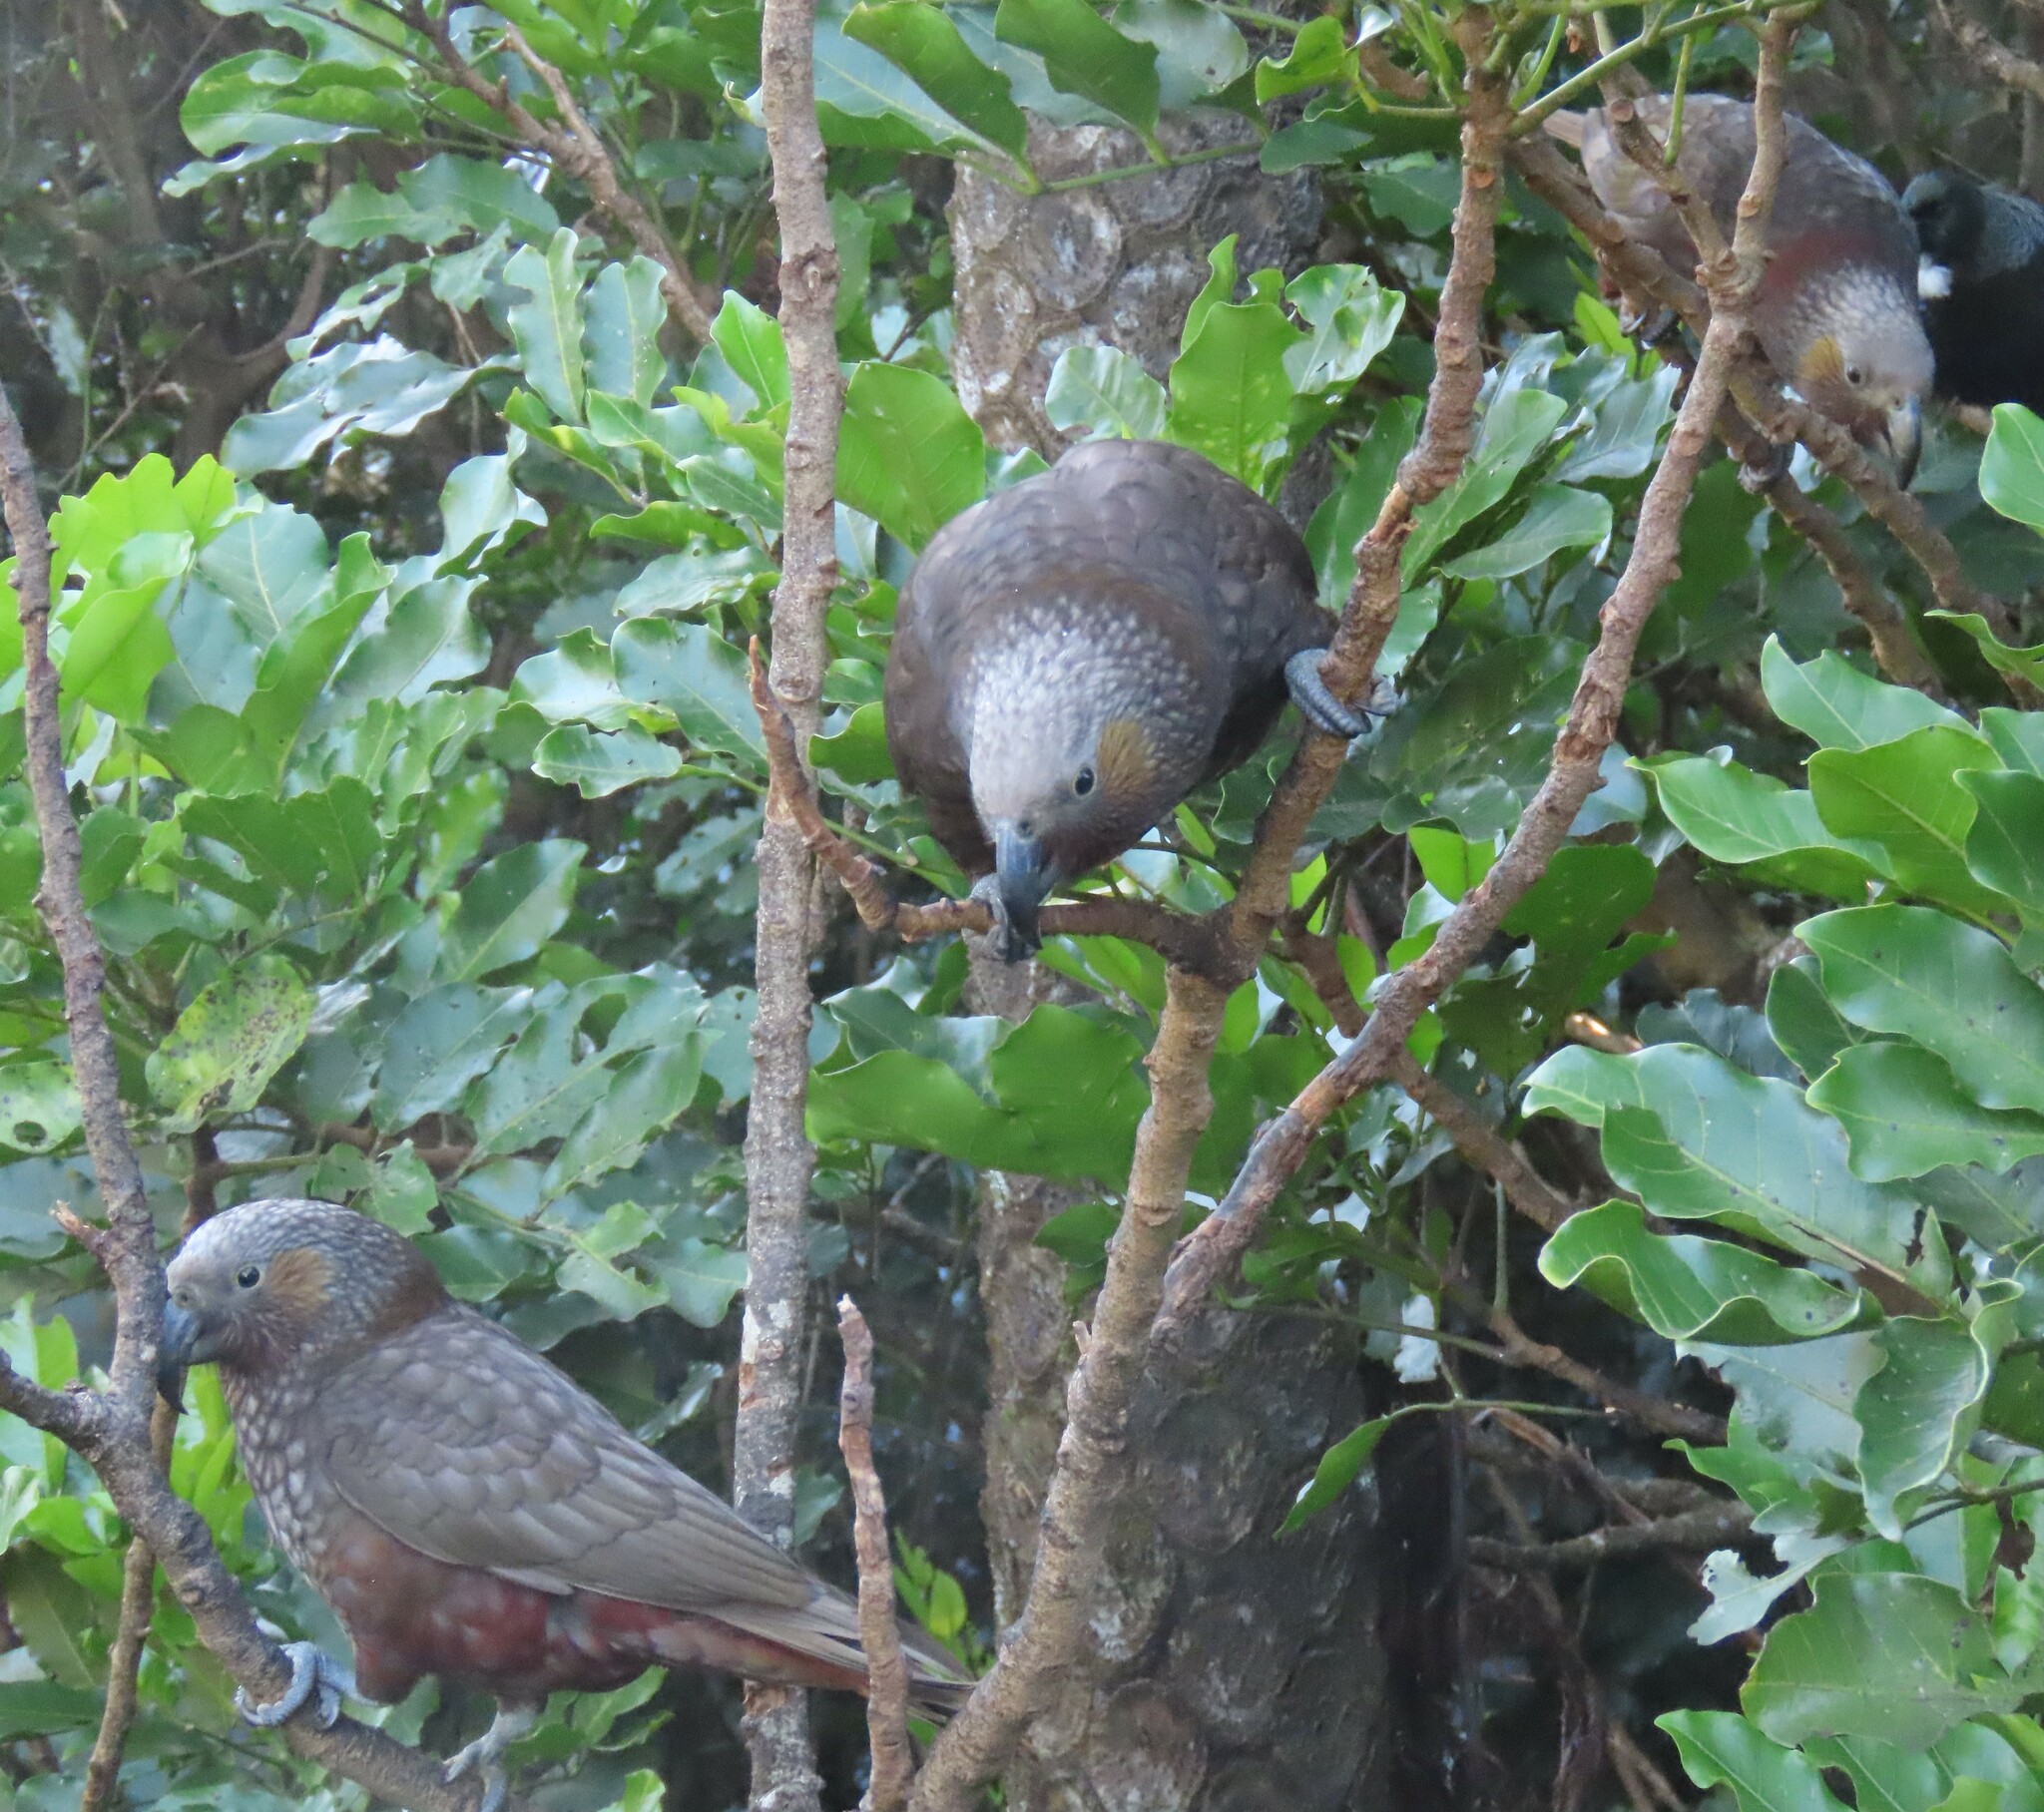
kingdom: Animalia
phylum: Chordata
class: Aves
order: Psittaciformes
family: Psittacidae
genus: Nestor
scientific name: Nestor meridionalis
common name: New zealand kaka
